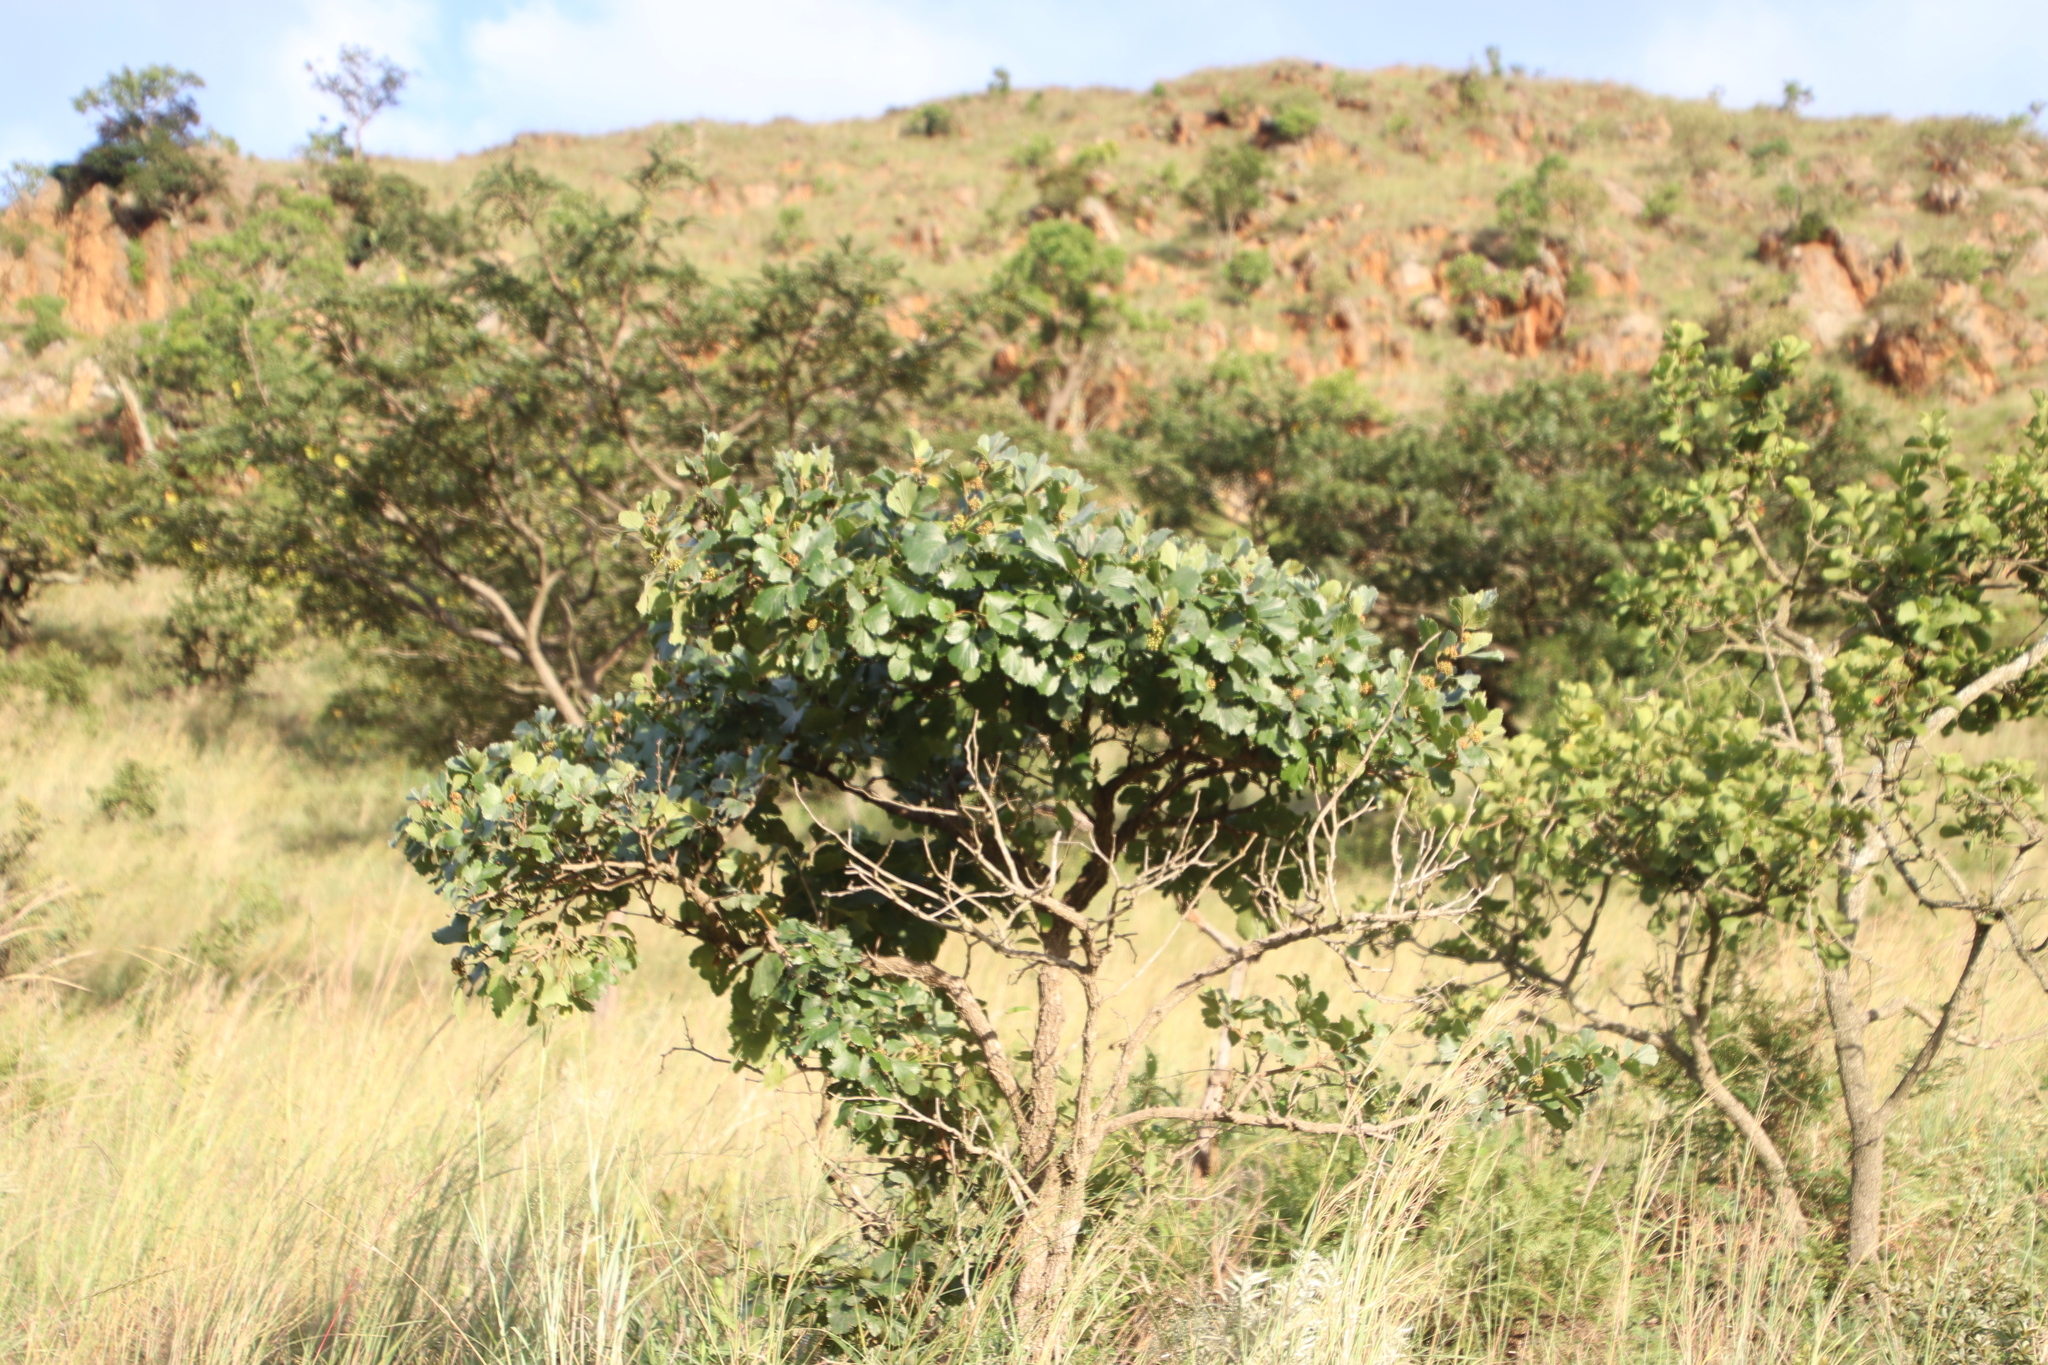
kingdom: Plantae
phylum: Tracheophyta
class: Magnoliopsida
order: Vitales
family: Vitaceae
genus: Rhoicissus
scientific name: Rhoicissus tridentata
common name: Common forest grape
